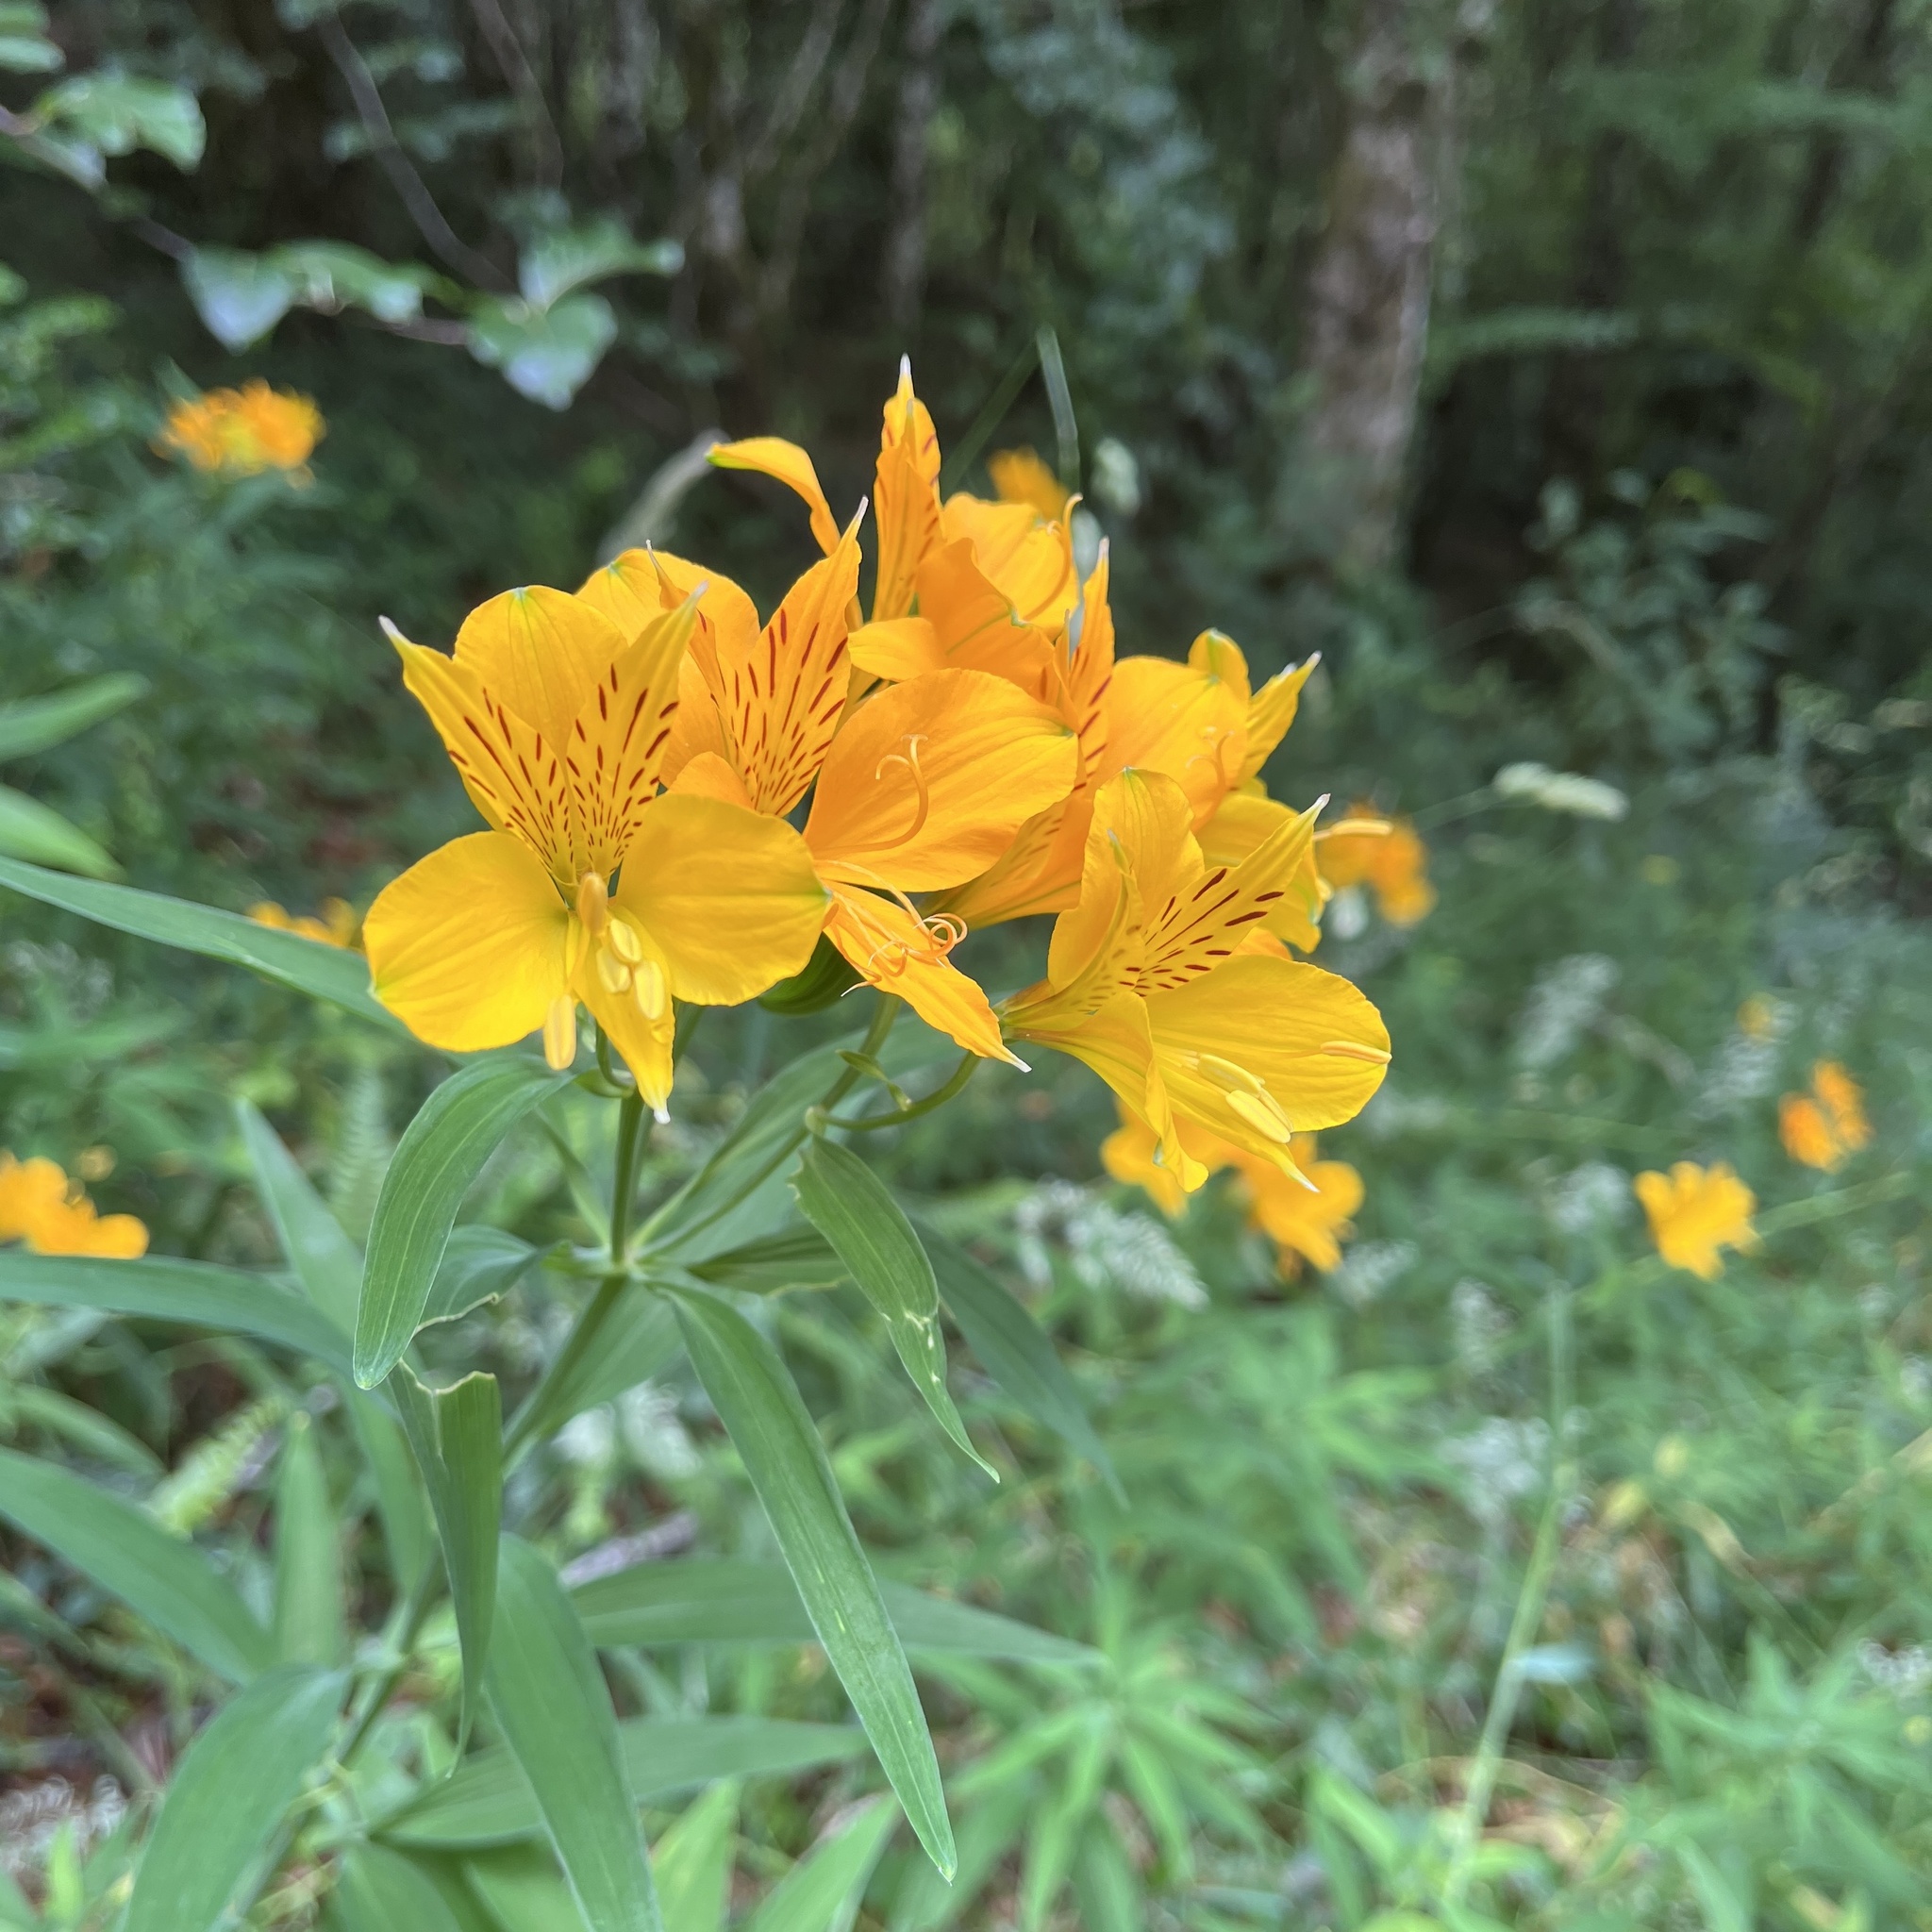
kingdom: Plantae
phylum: Tracheophyta
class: Liliopsida
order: Liliales
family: Alstroemeriaceae
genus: Alstroemeria
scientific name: Alstroemeria aurea
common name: Peruvian lily
